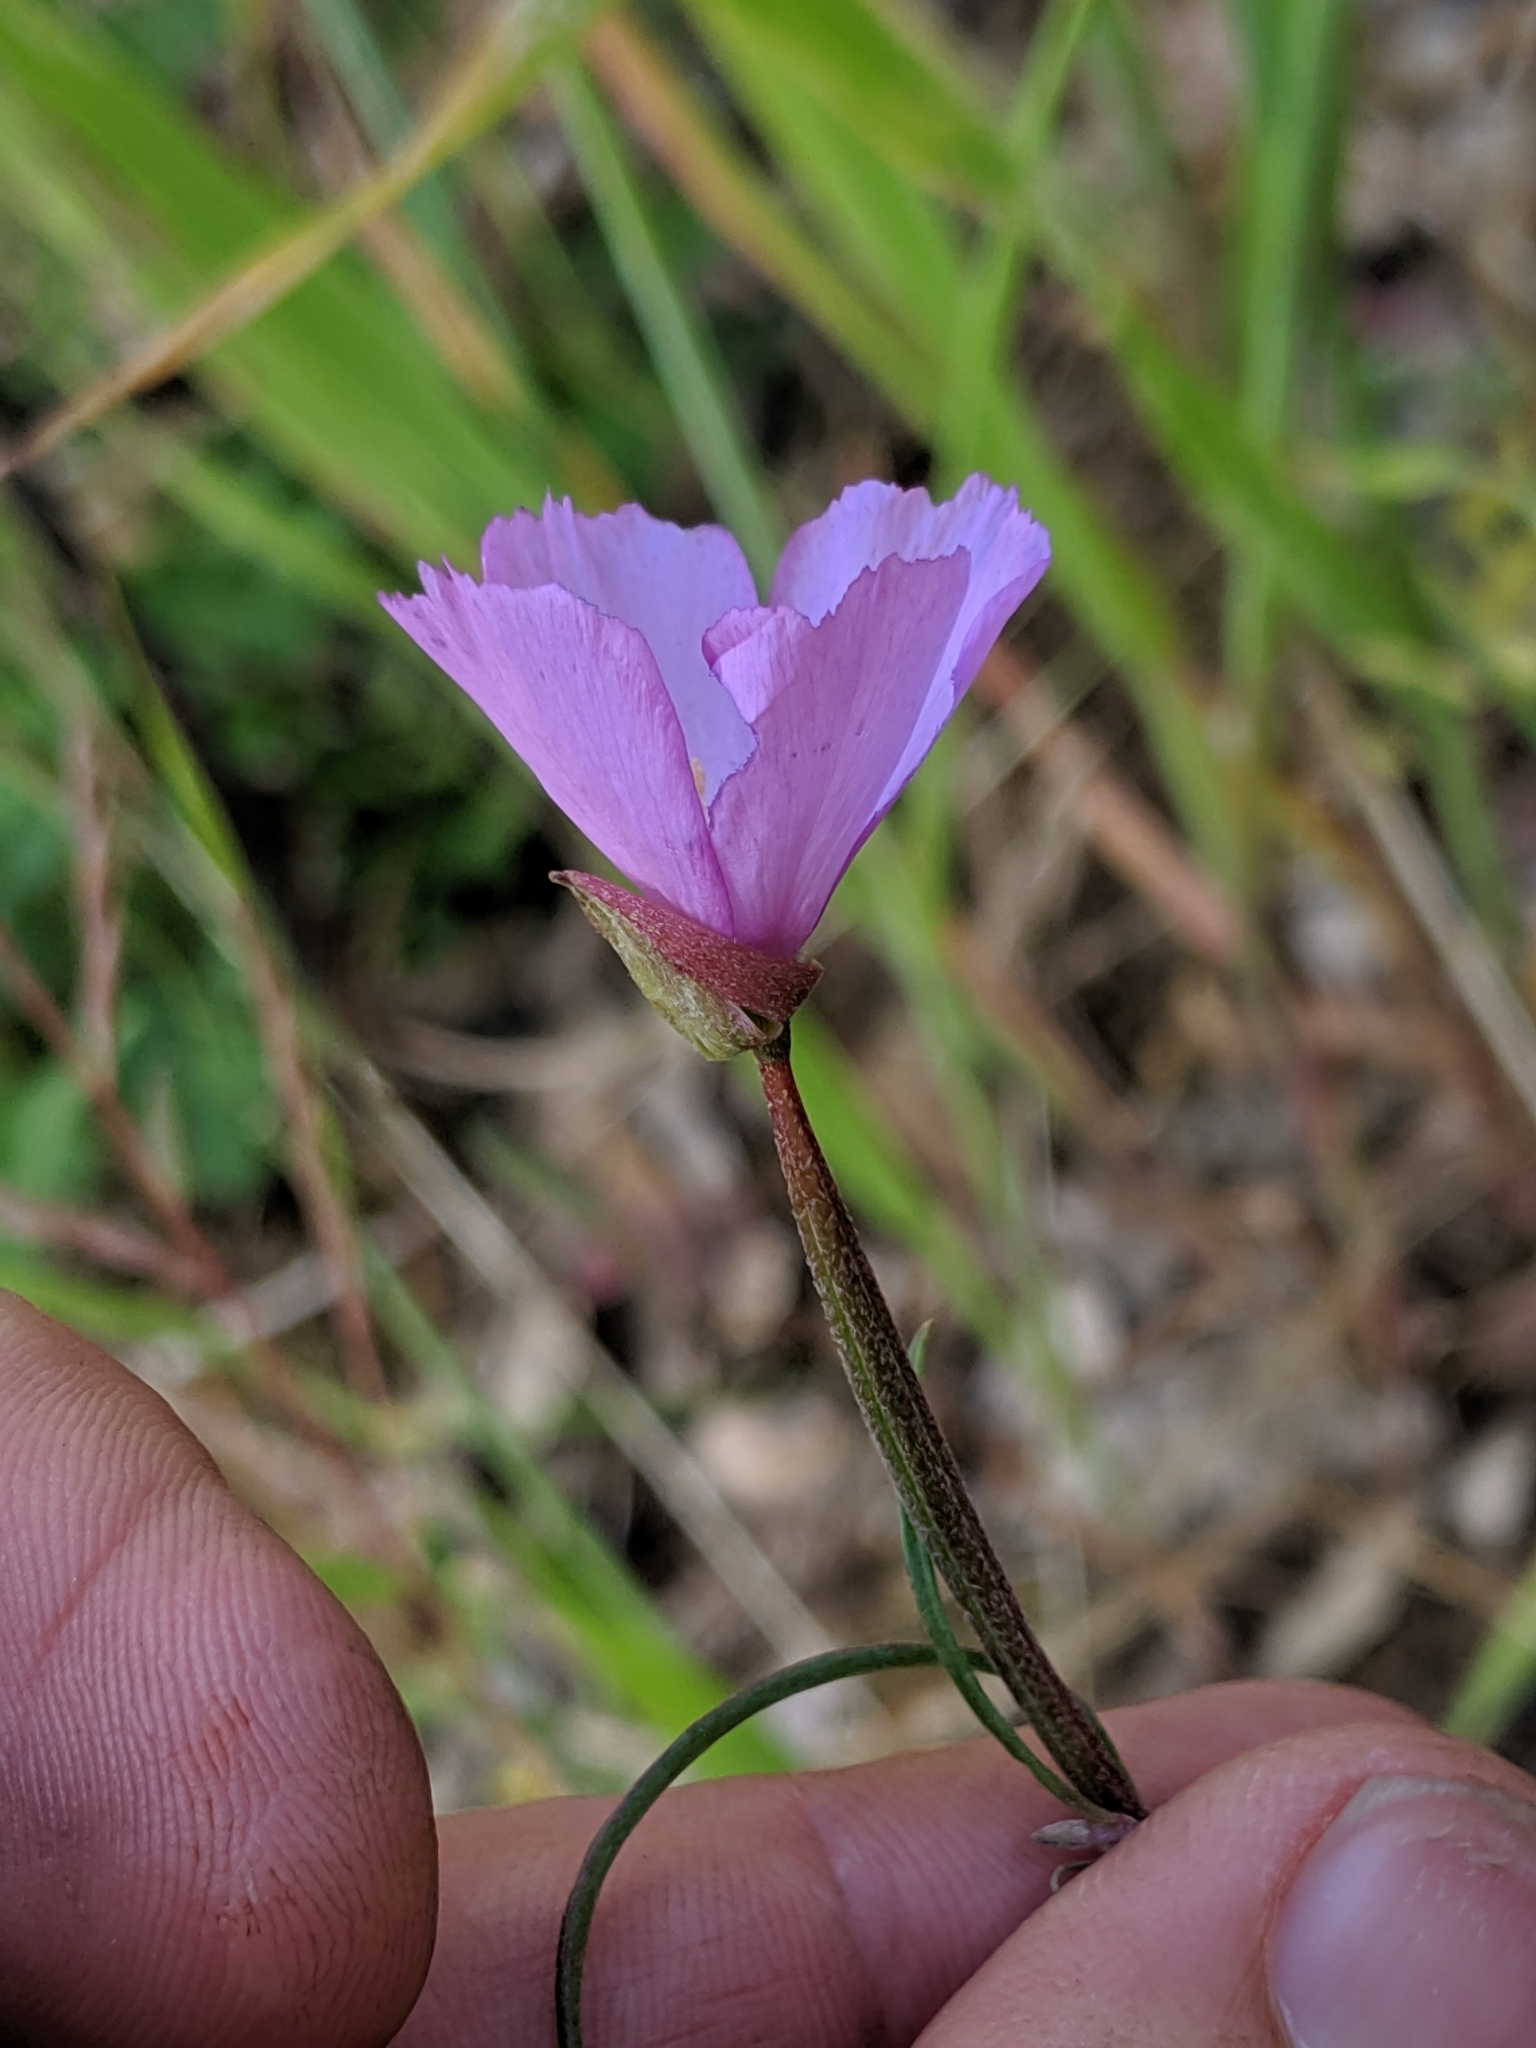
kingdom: Plantae
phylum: Tracheophyta
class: Magnoliopsida
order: Myrtales
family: Onagraceae
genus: Clarkia
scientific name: Clarkia gracilis
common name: Graceful clarkia
